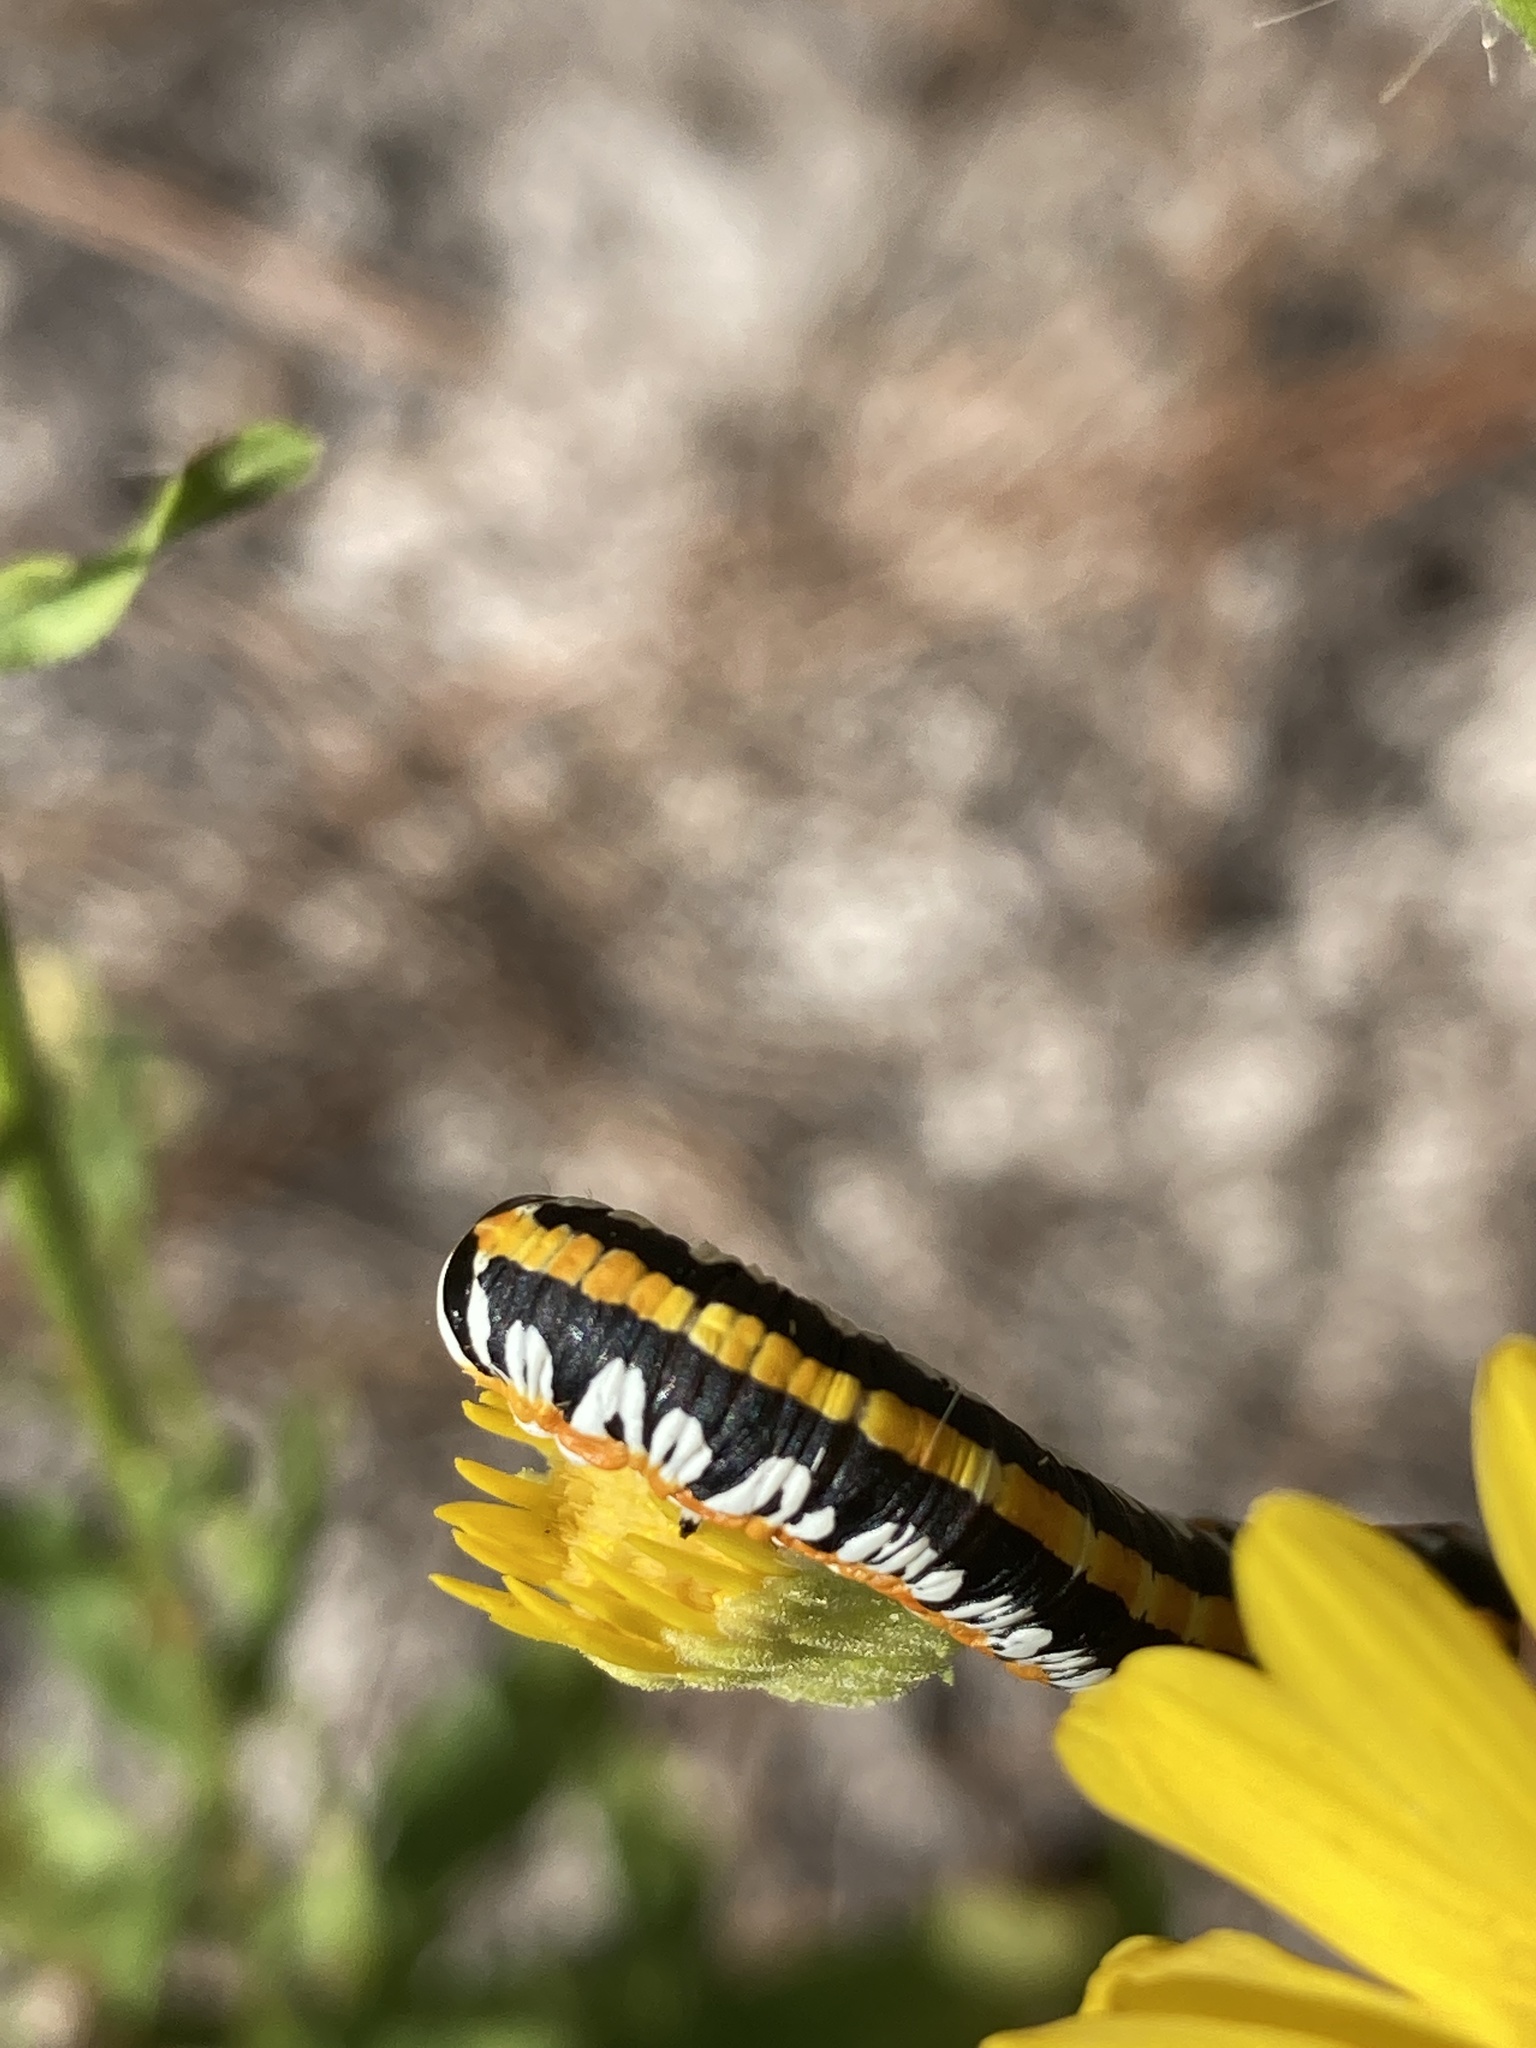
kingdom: Animalia
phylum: Arthropoda
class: Insecta
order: Lepidoptera
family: Noctuidae
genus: Cucullia
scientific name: Cucullia alfarata
